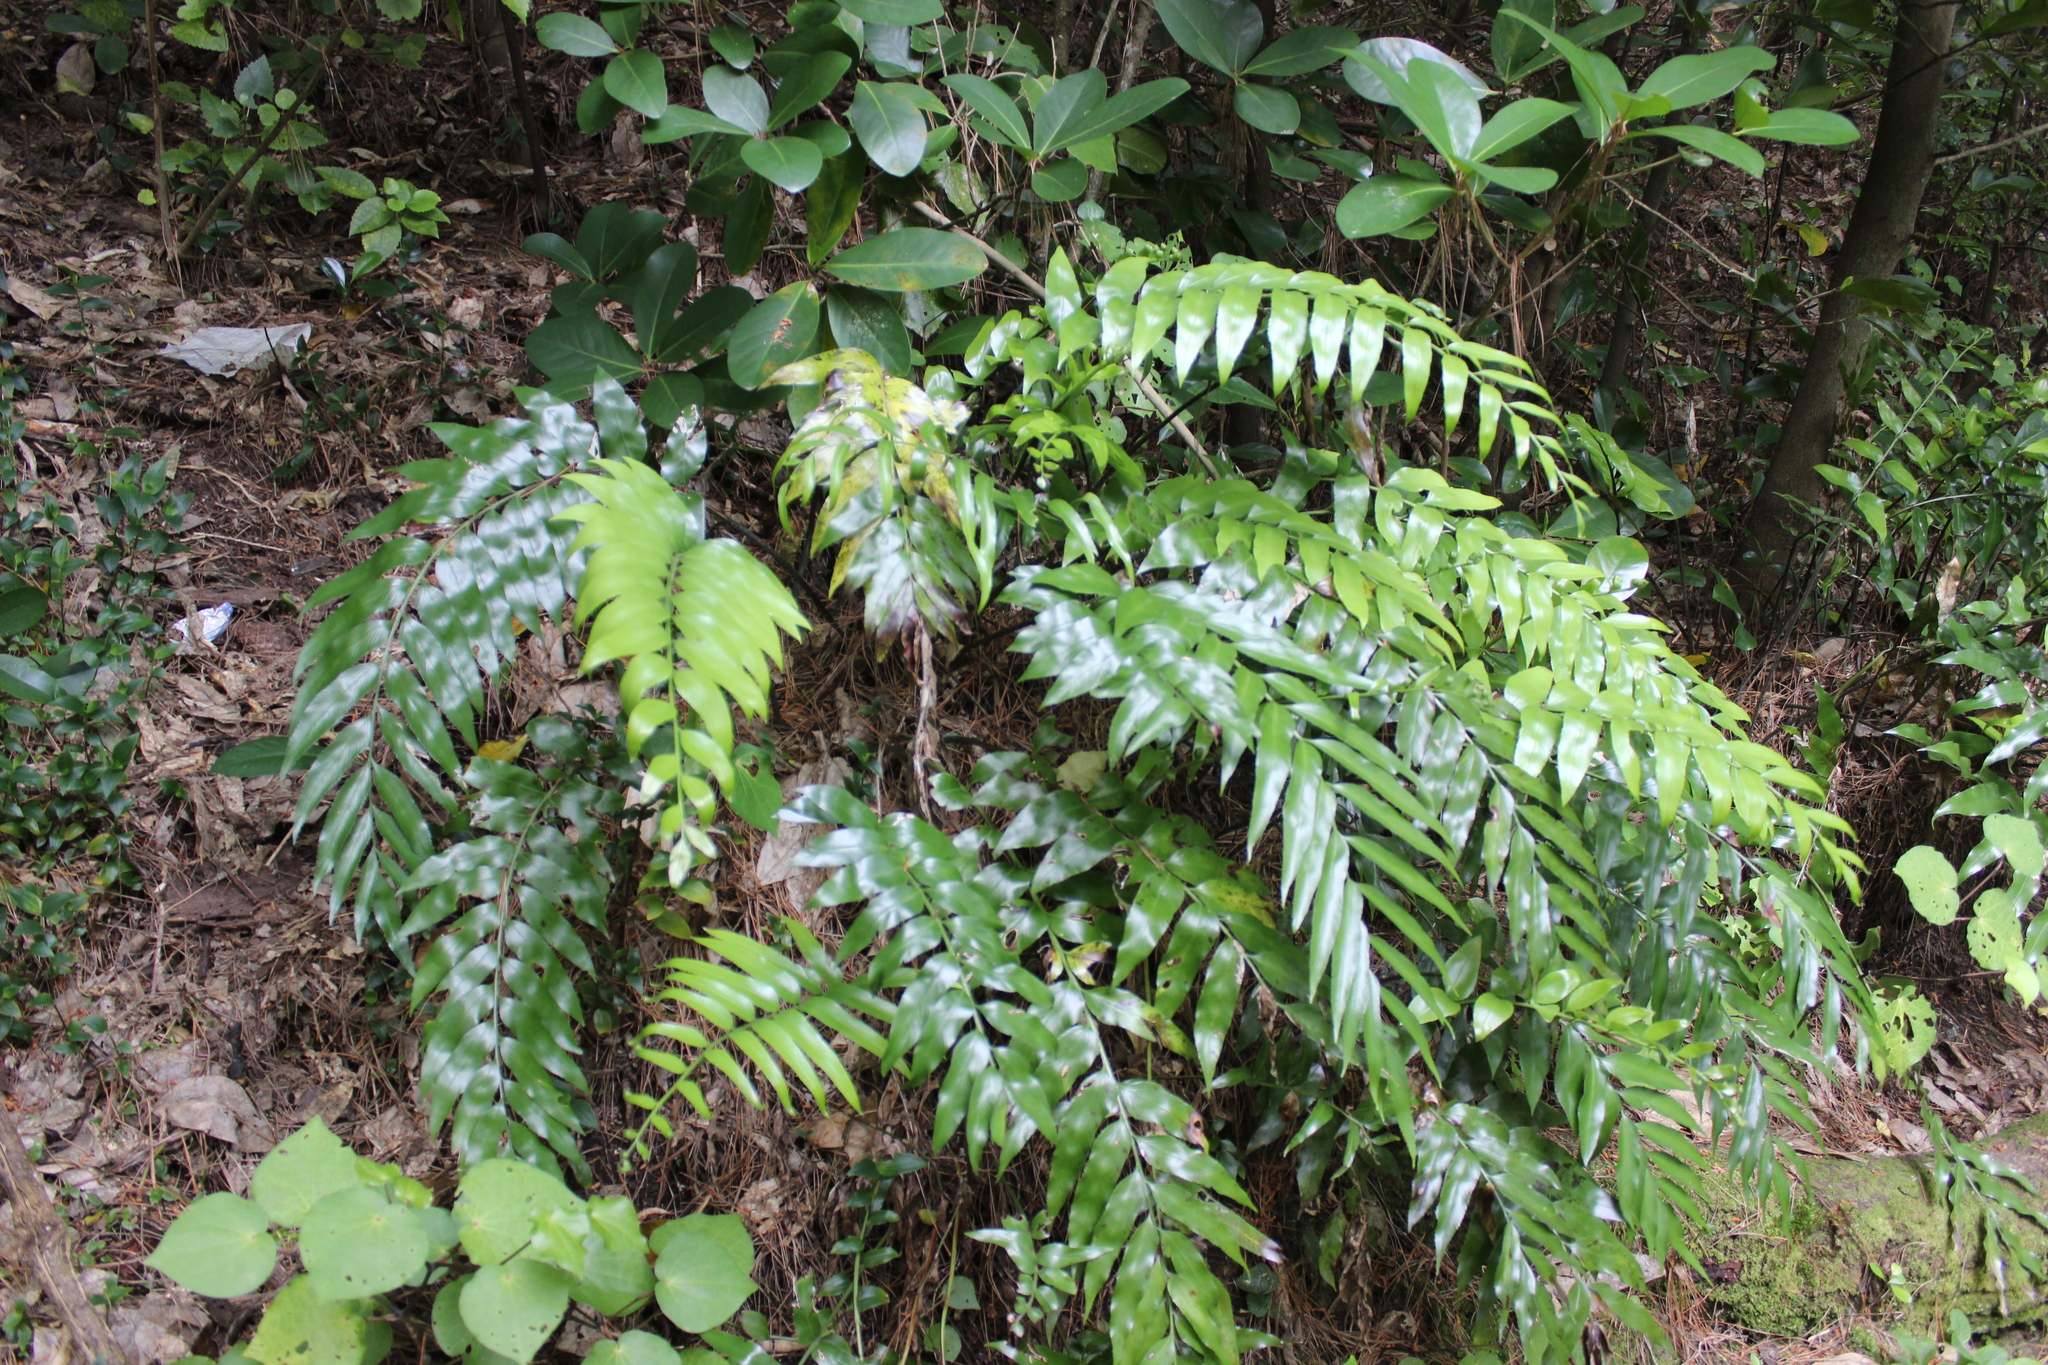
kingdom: Plantae
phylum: Tracheophyta
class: Polypodiopsida
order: Polypodiales
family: Aspleniaceae
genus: Asplenium
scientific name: Asplenium oblongifolium
